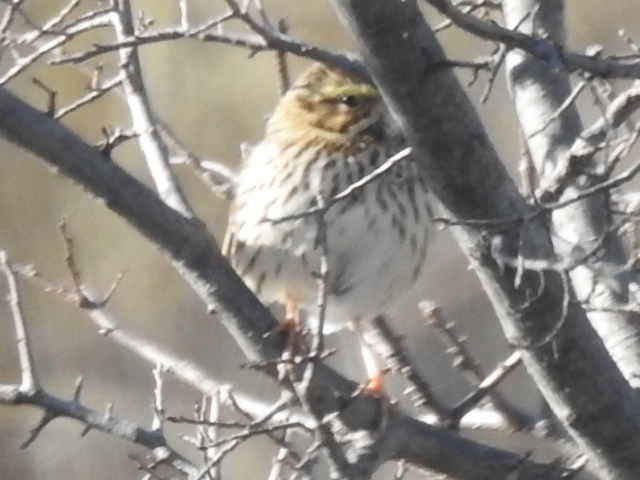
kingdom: Animalia
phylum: Chordata
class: Aves
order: Passeriformes
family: Passerellidae
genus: Passerculus
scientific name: Passerculus sandwichensis
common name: Savannah sparrow
